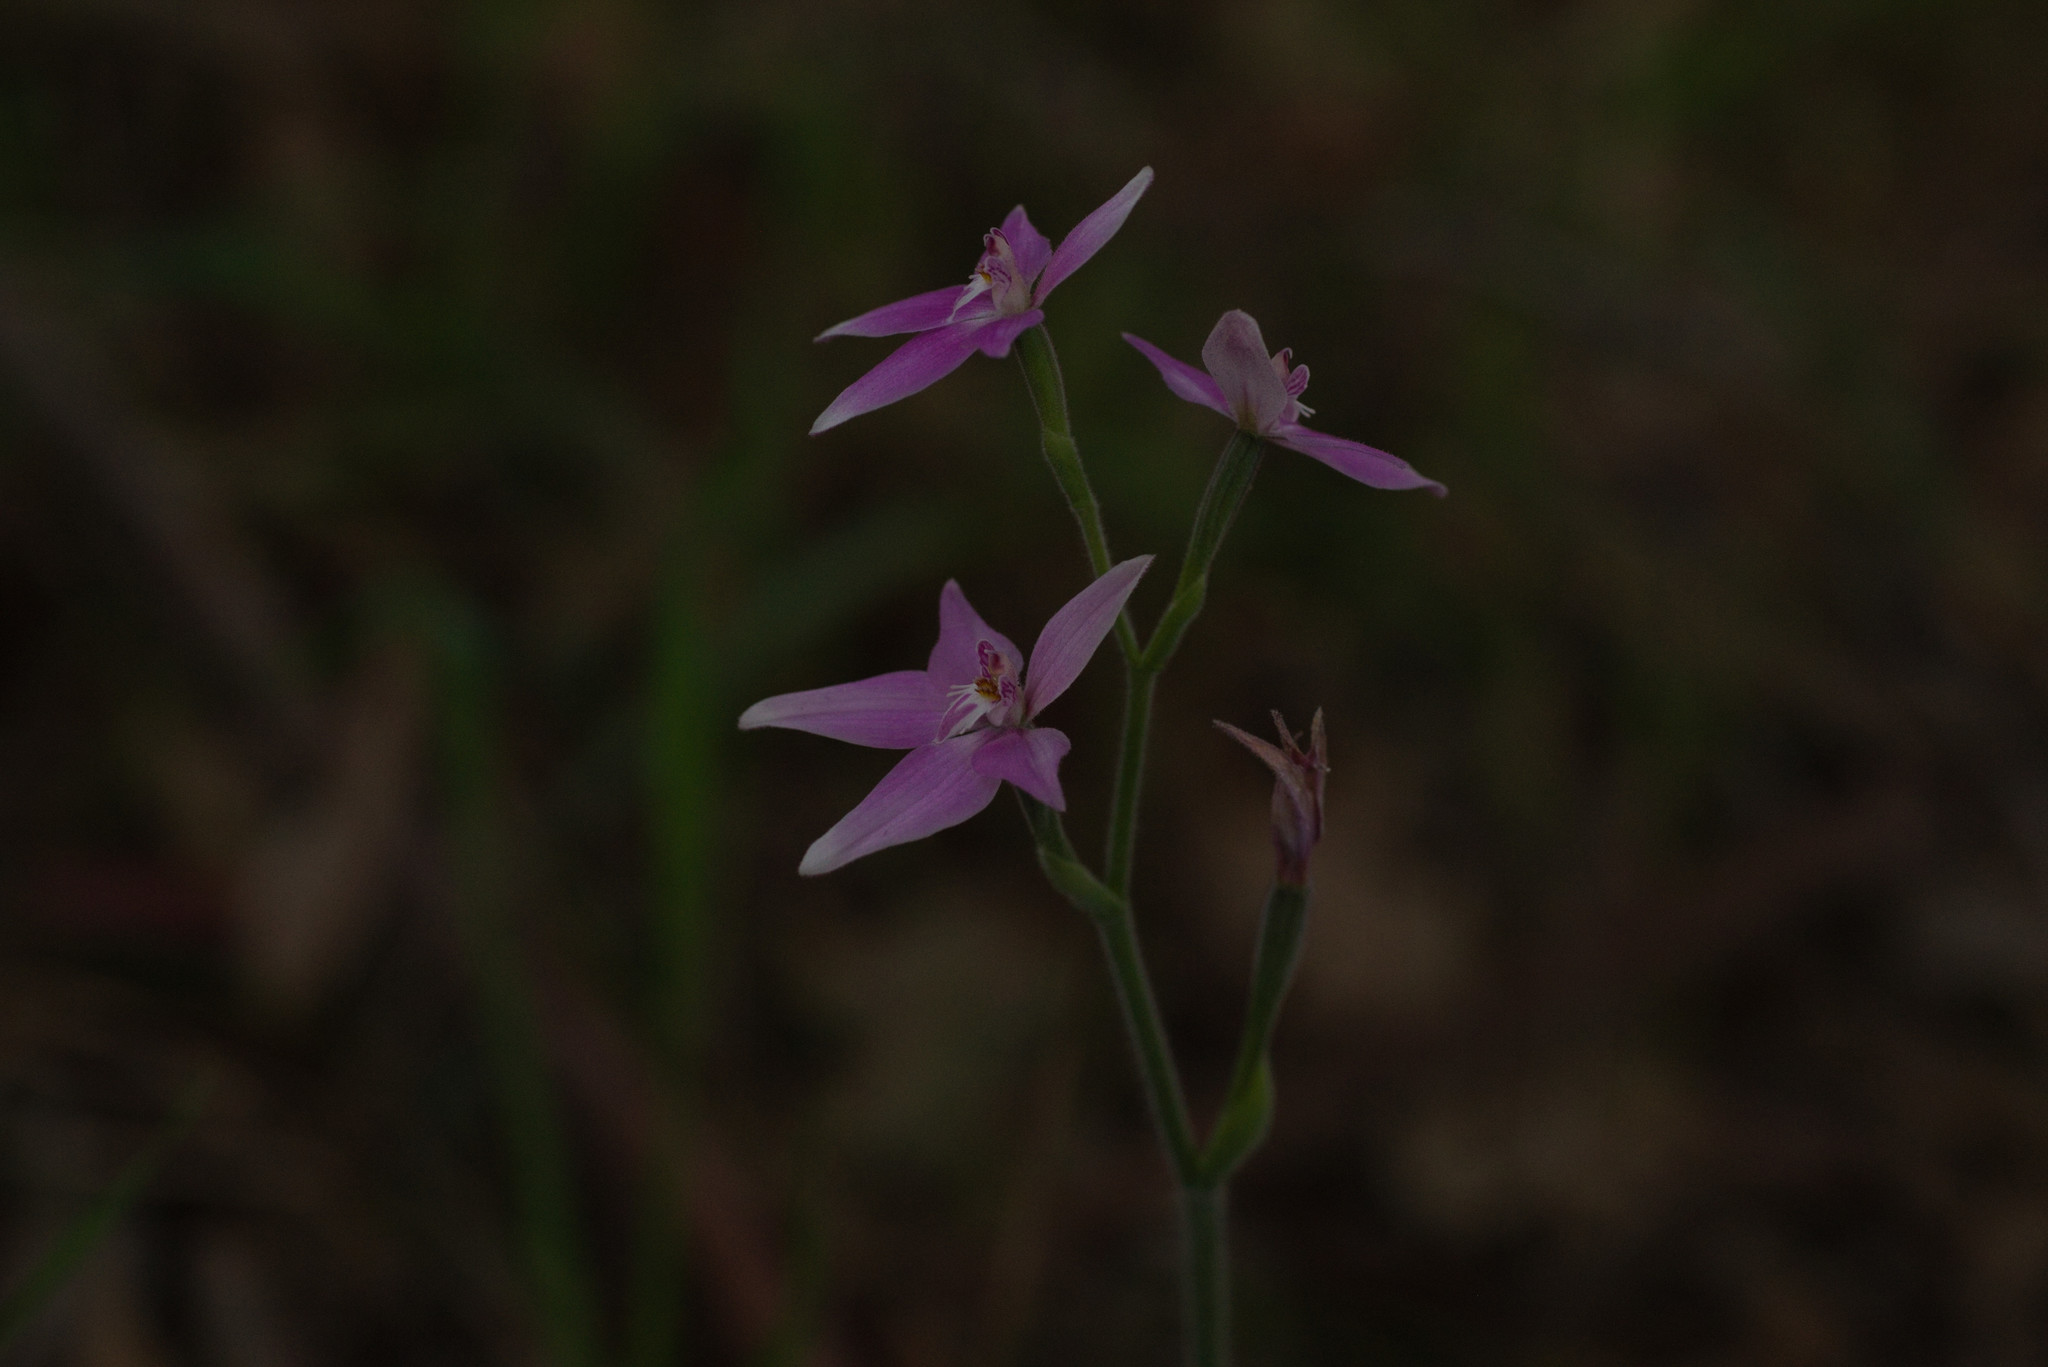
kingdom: Plantae
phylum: Tracheophyta
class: Liliopsida
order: Asparagales
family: Orchidaceae
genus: Caladenia
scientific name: Caladenia latifolia
